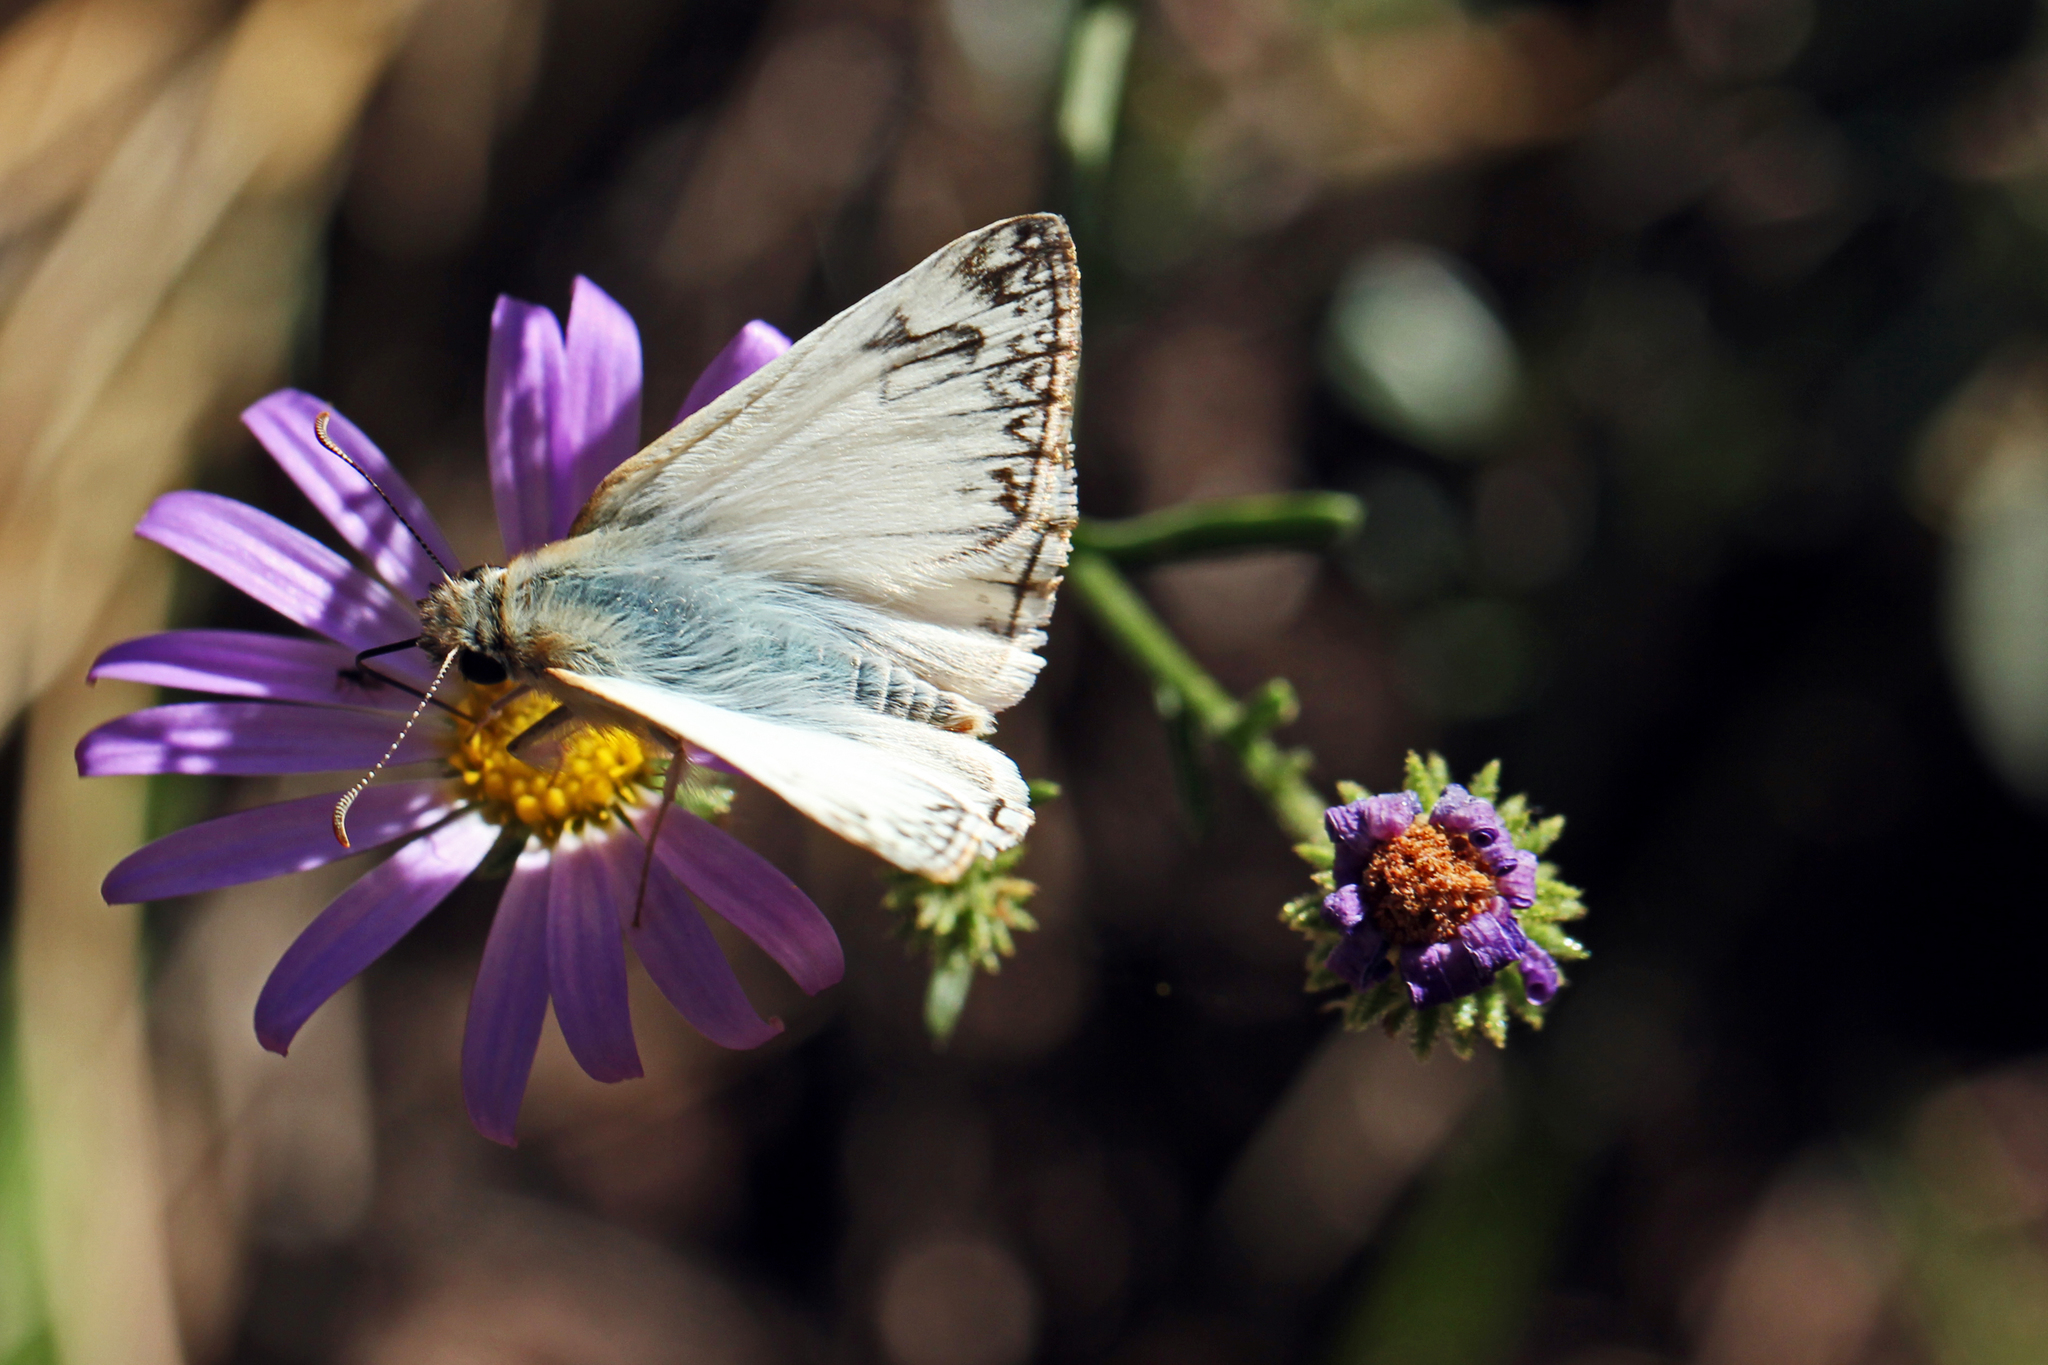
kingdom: Animalia
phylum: Arthropoda
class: Insecta
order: Lepidoptera
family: Hesperiidae
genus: Heliopetes
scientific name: Heliopetes ericetorum
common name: Northern white-skipper
